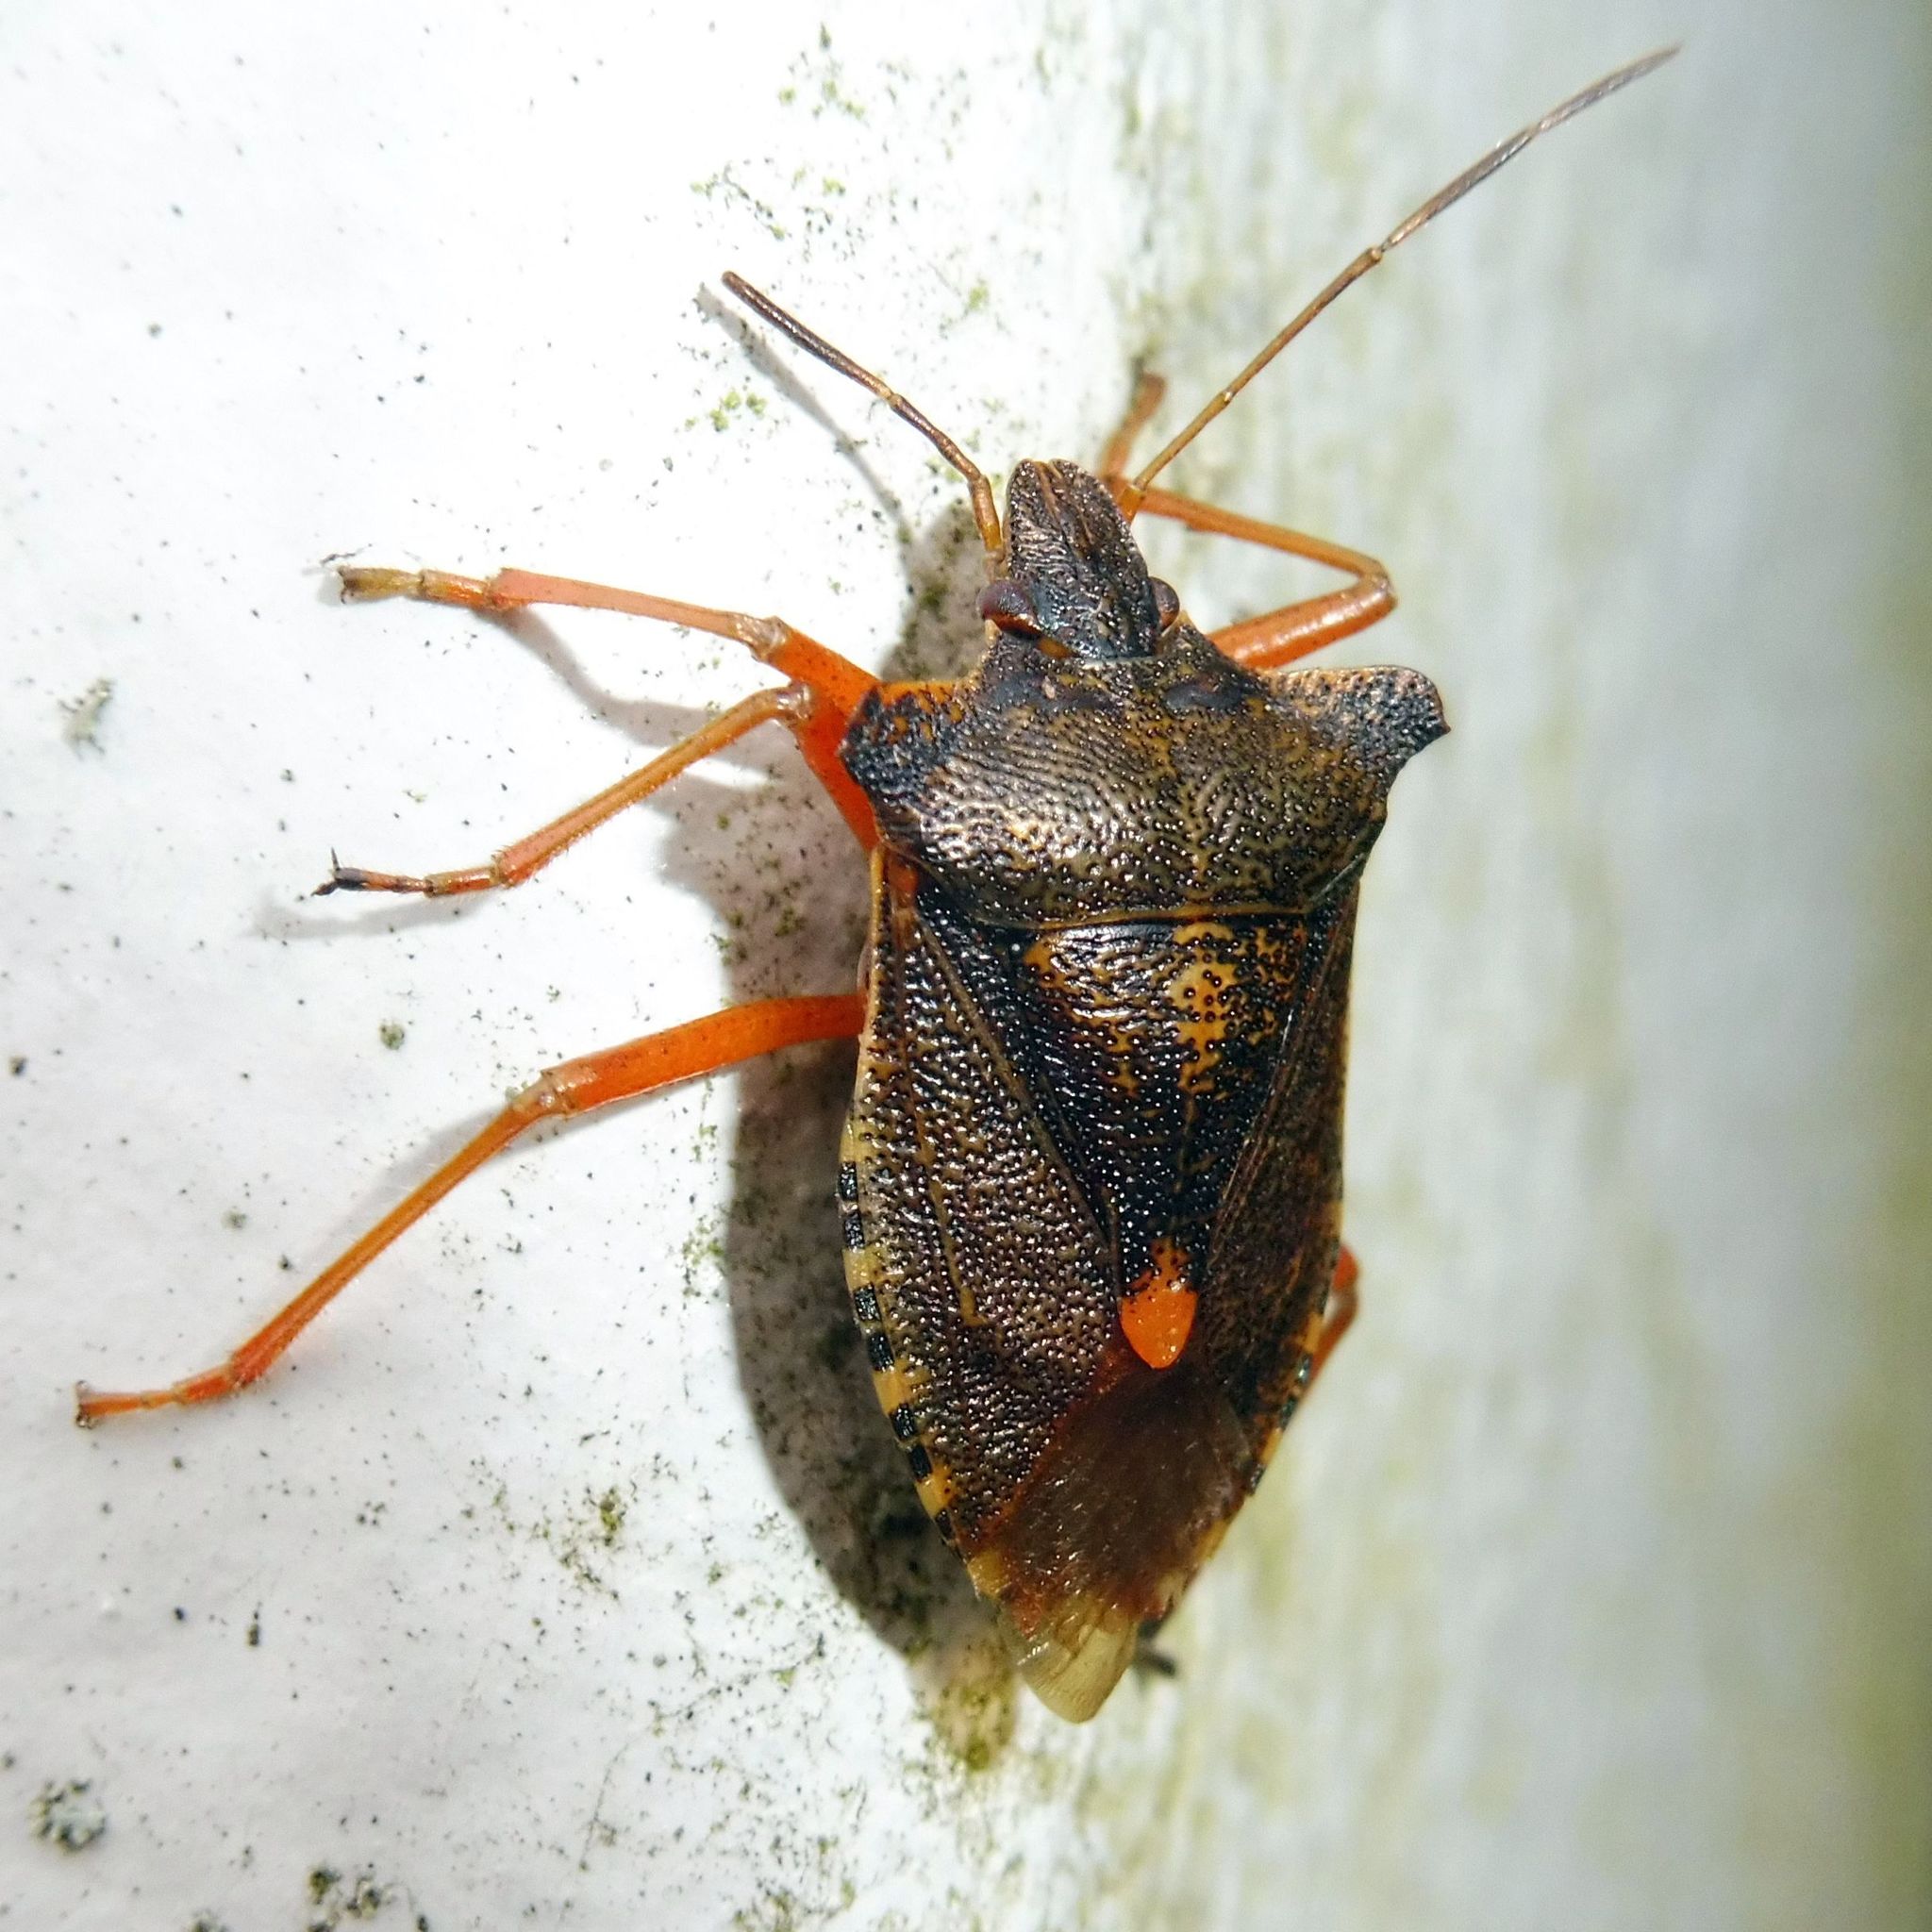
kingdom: Animalia
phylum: Arthropoda
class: Insecta
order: Hemiptera
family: Pentatomidae
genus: Pentatoma
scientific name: Pentatoma rufipes
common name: Forest bug
